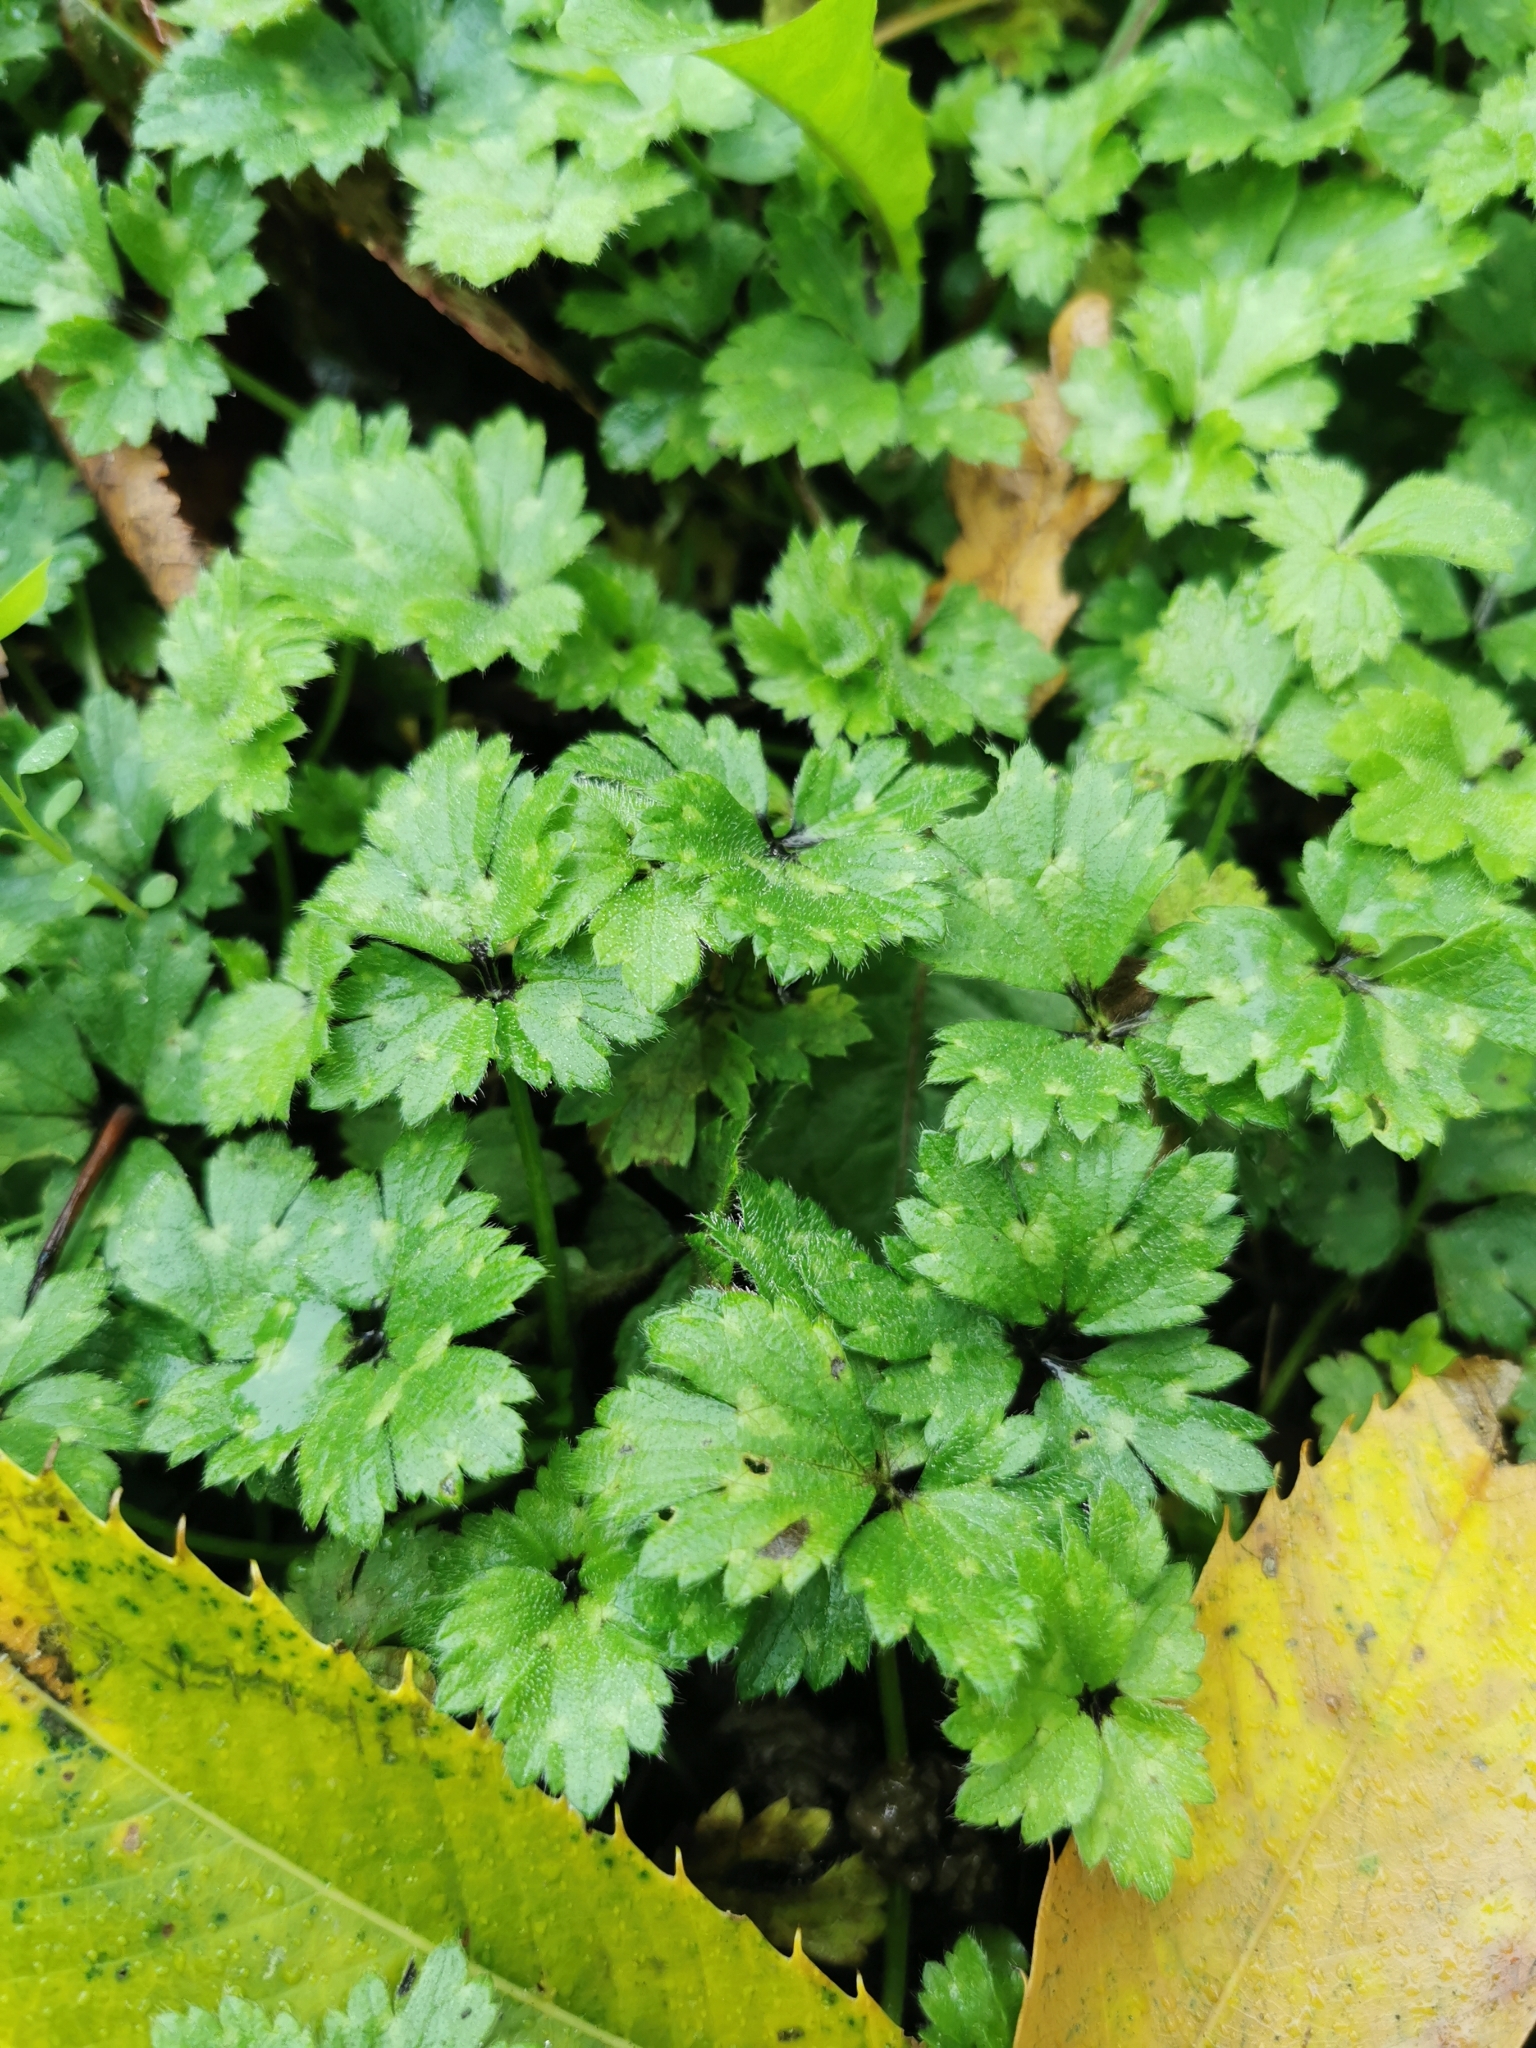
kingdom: Plantae
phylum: Tracheophyta
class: Magnoliopsida
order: Ranunculales
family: Ranunculaceae
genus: Ranunculus
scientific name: Ranunculus repens
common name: Creeping buttercup
